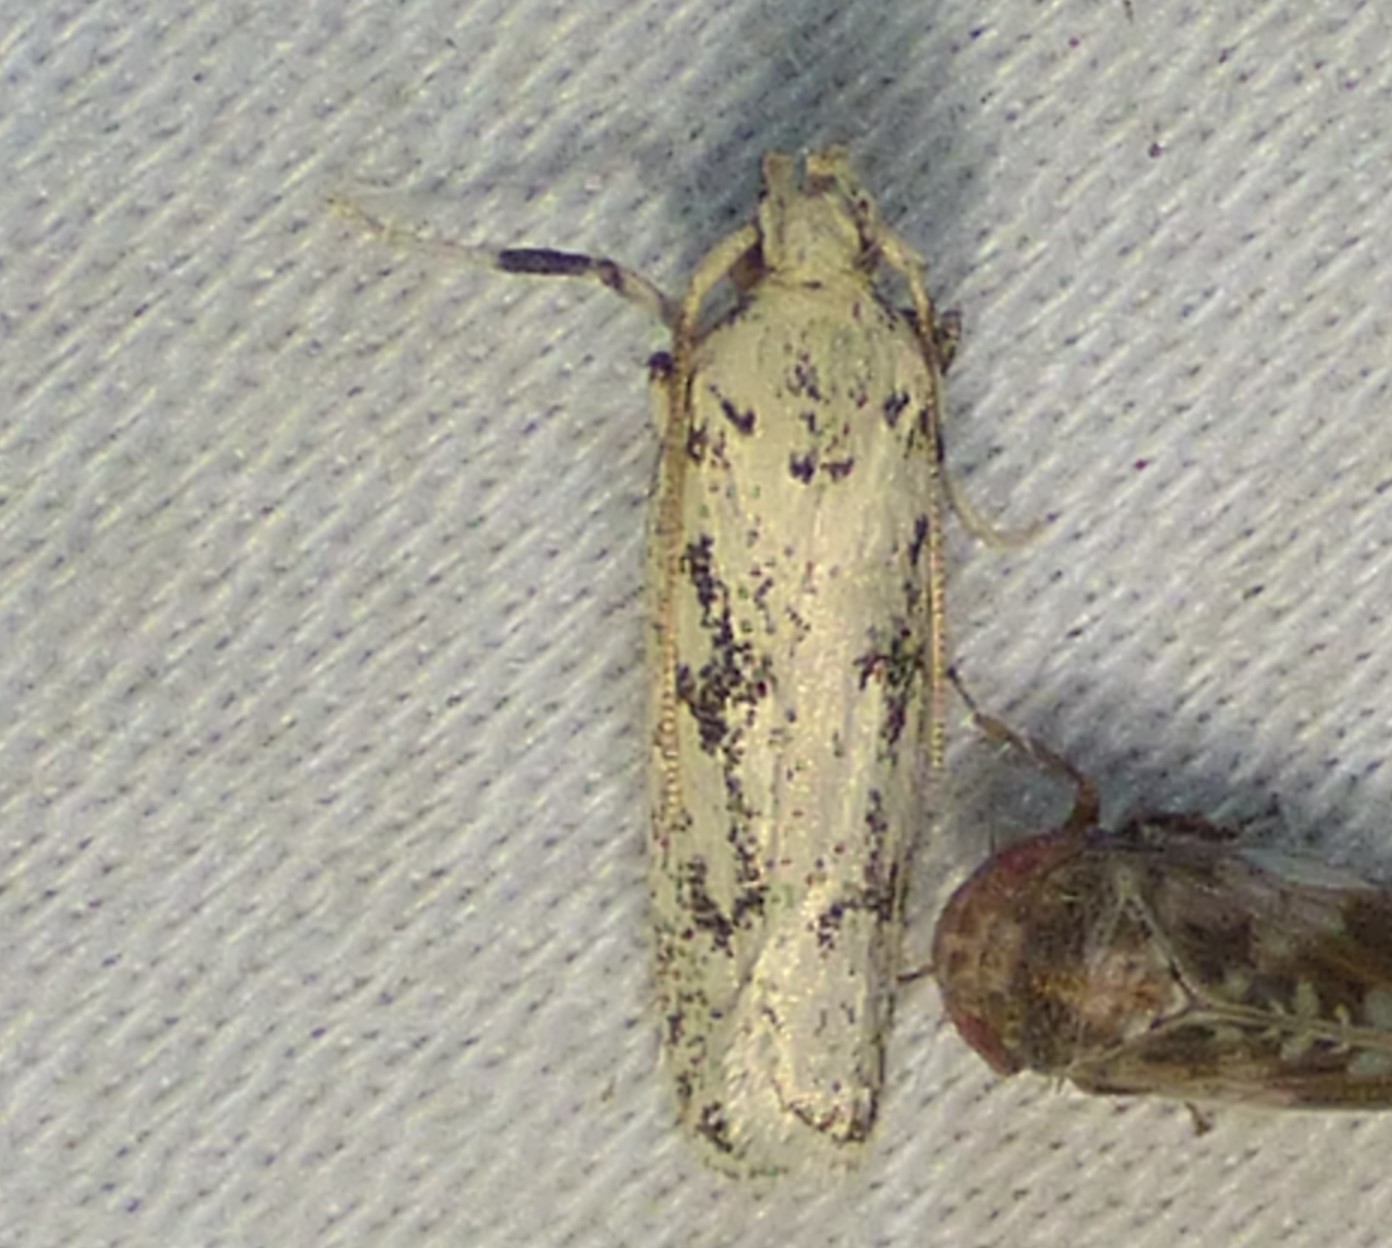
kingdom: Animalia
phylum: Arthropoda
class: Insecta
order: Lepidoptera
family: Autostichidae
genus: Glyphidocera
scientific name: Glyphidocera lactiflosella
